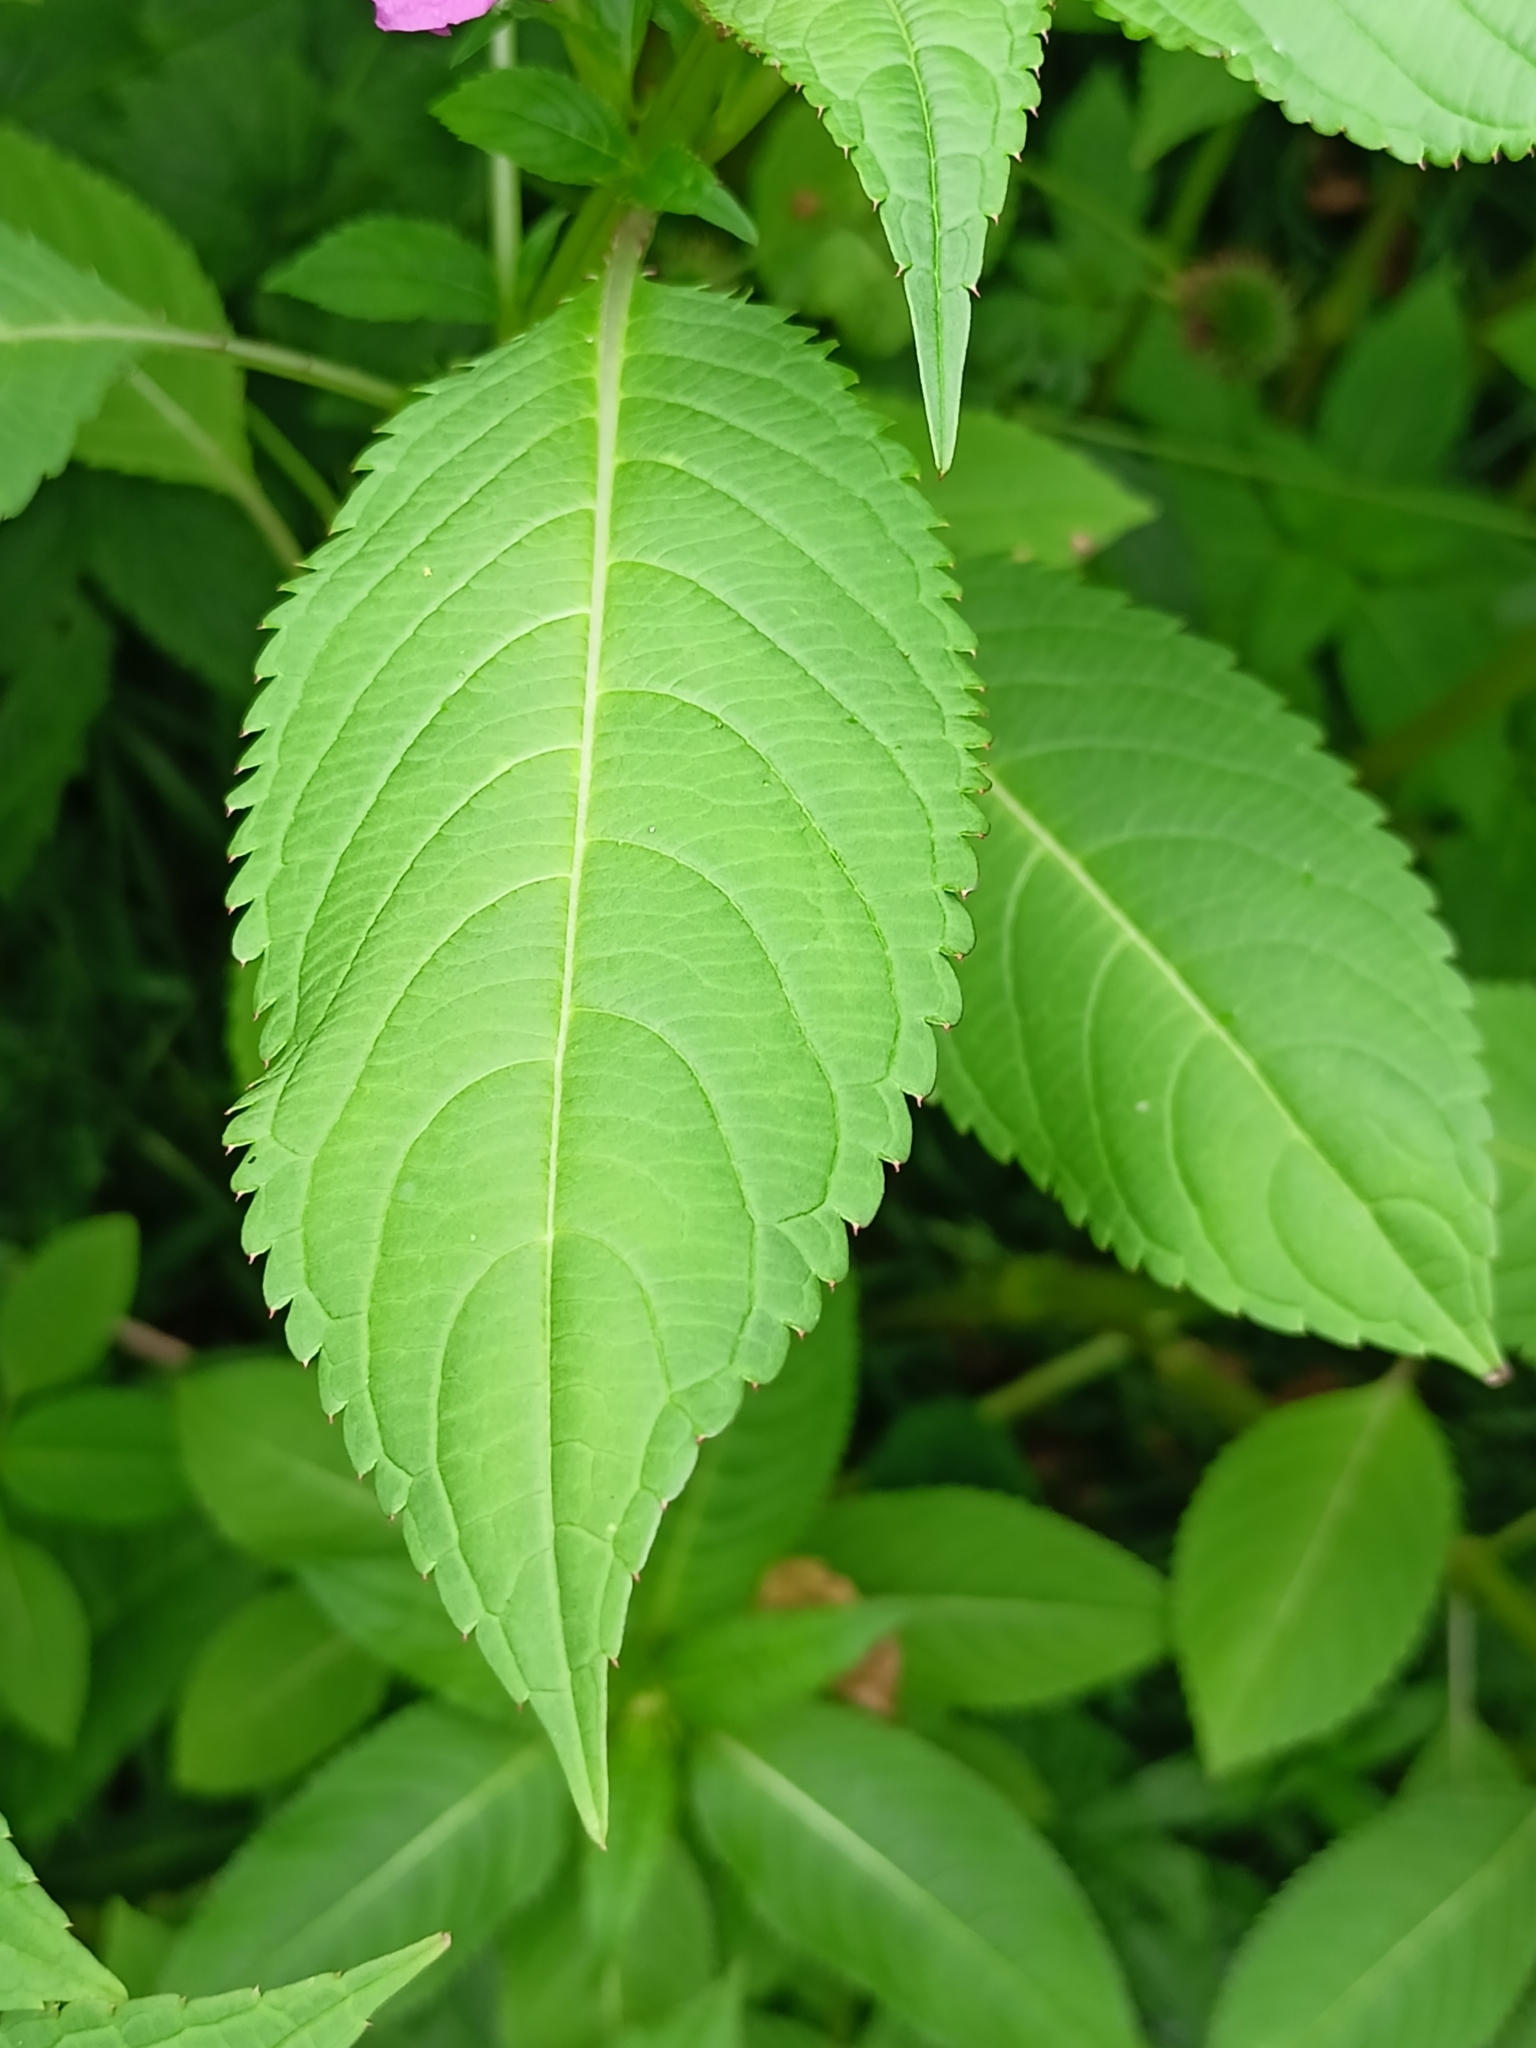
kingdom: Plantae
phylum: Tracheophyta
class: Magnoliopsida
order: Ericales
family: Balsaminaceae
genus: Impatiens
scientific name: Impatiens glandulifera
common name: Himalayan balsam
